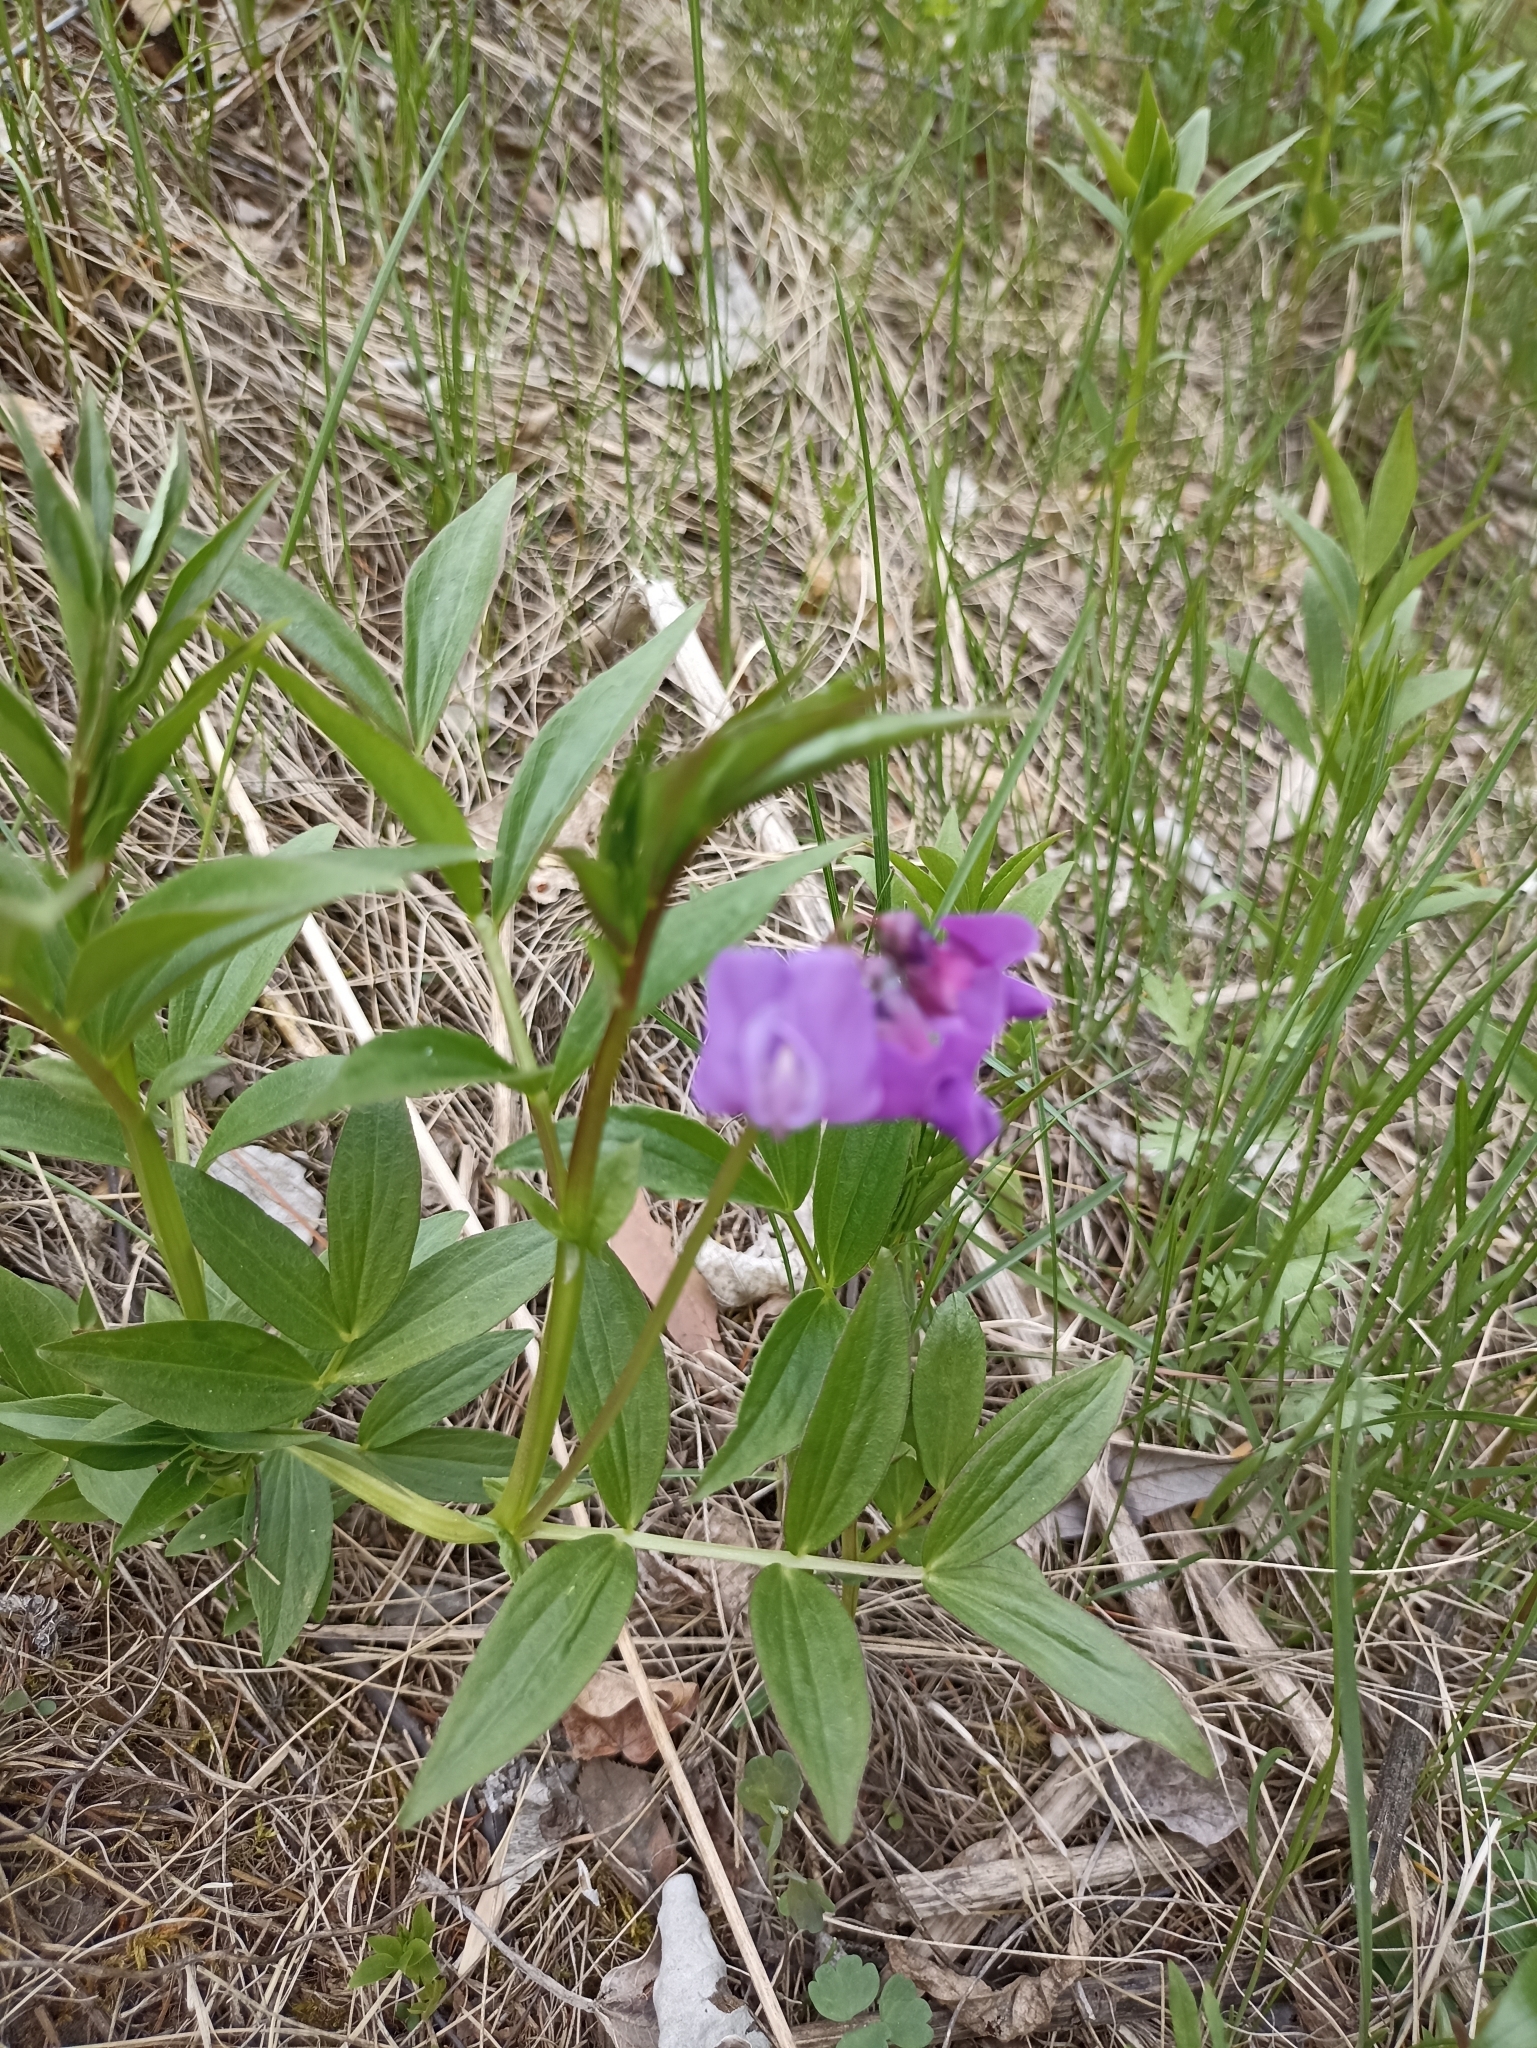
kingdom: Plantae
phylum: Tracheophyta
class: Magnoliopsida
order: Fabales
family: Fabaceae
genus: Lathyrus
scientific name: Lathyrus frolovii
